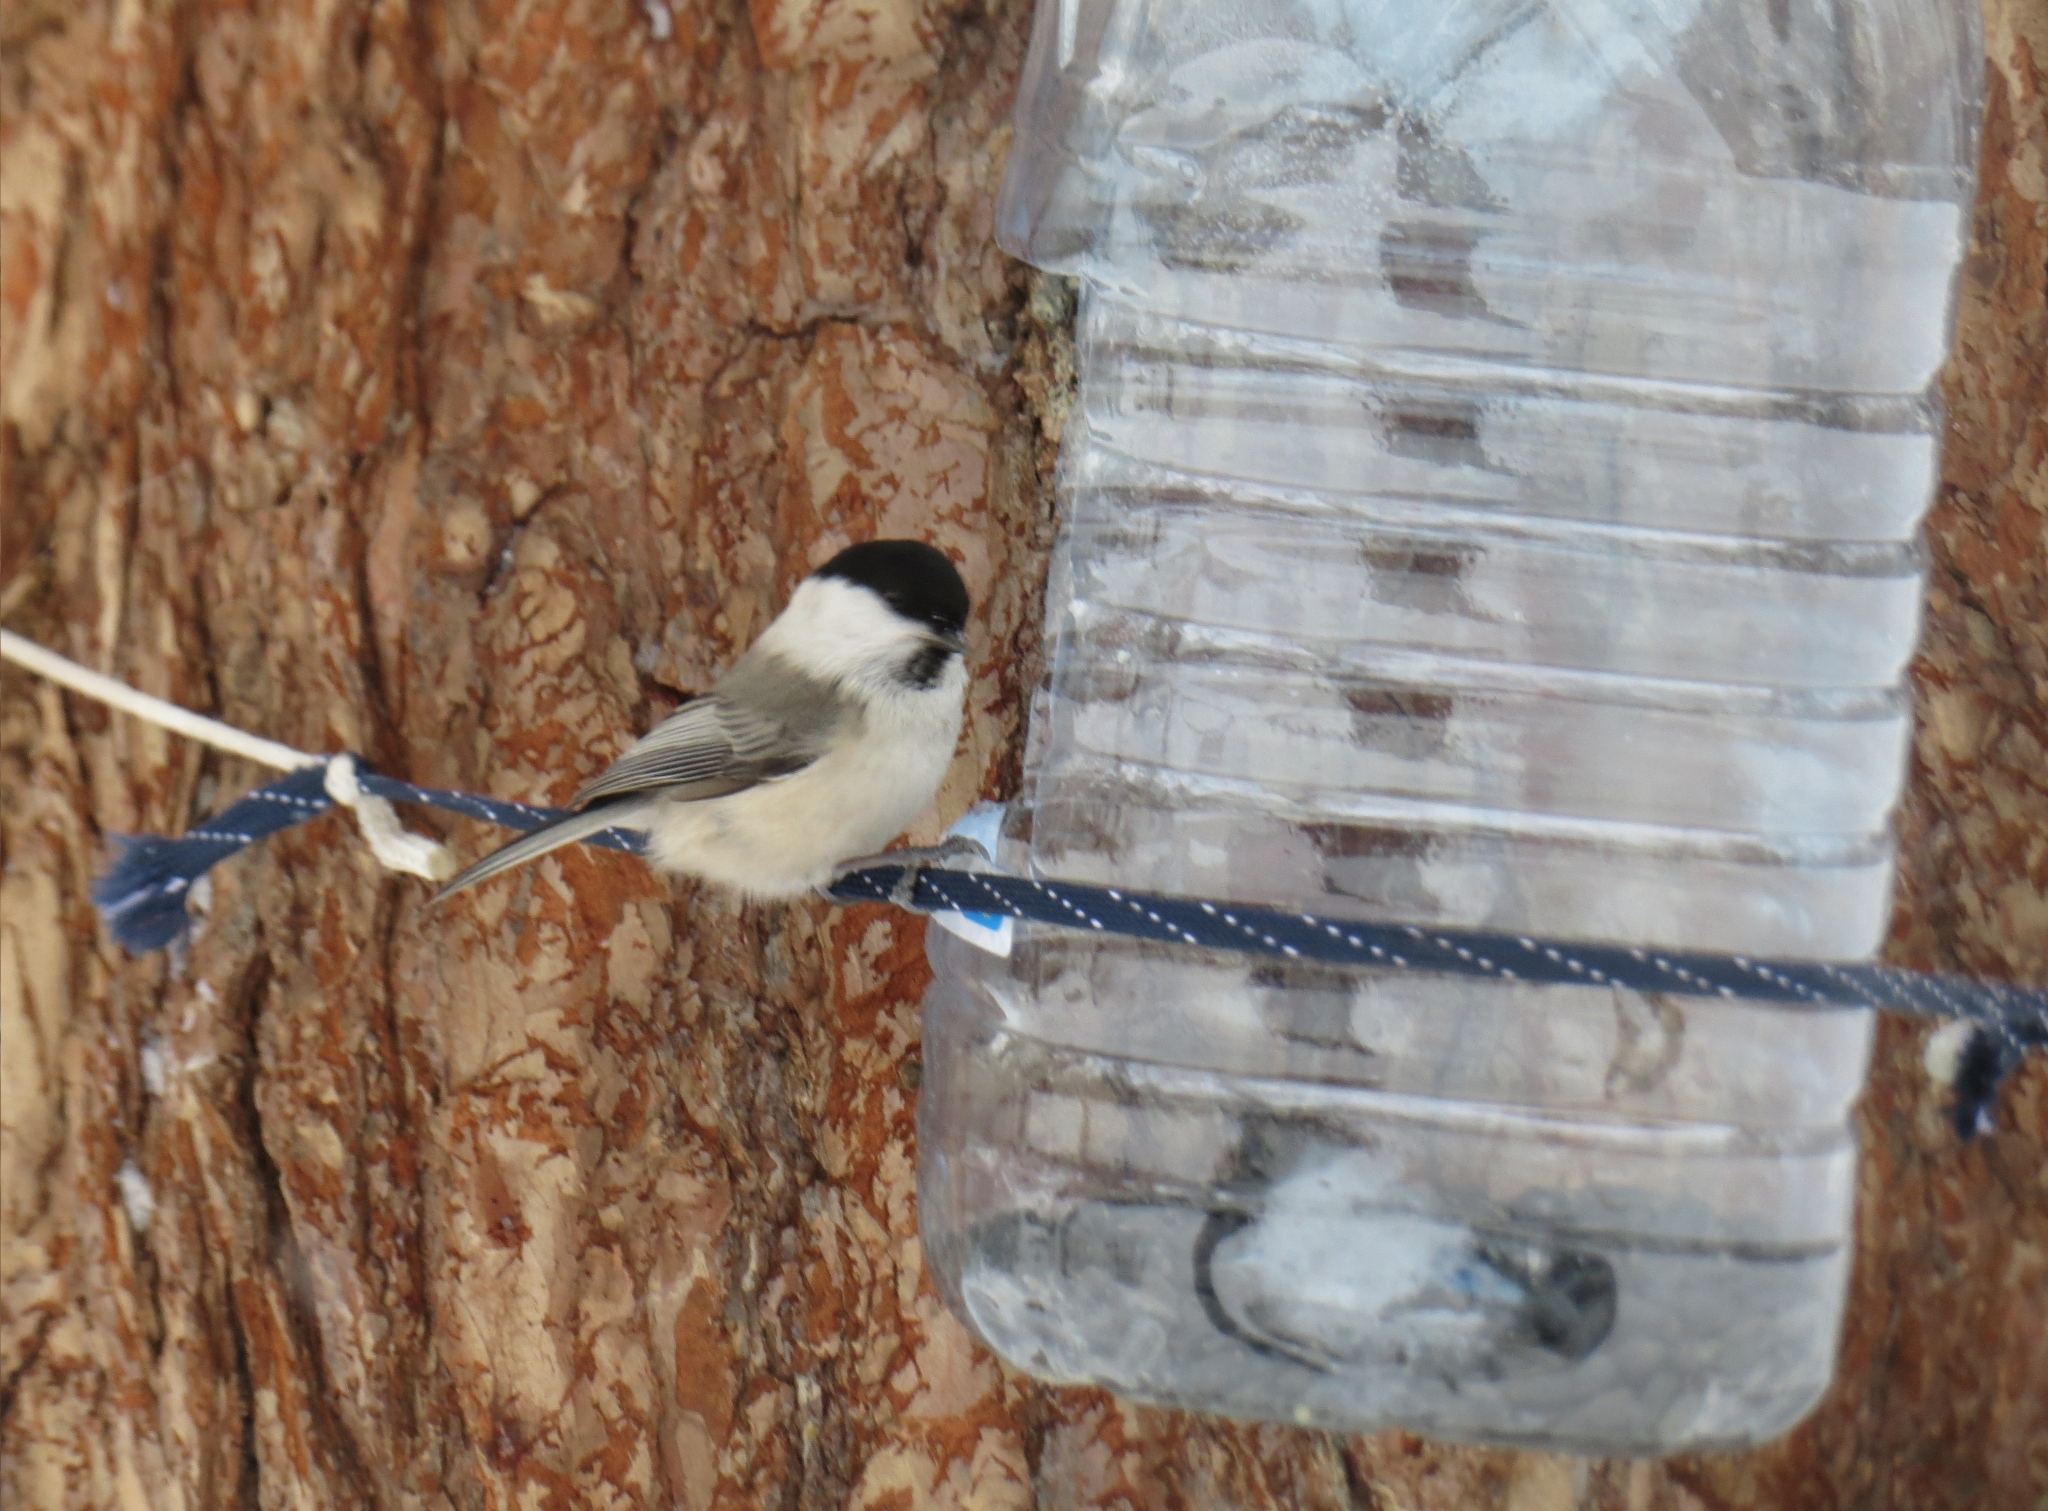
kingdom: Animalia
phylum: Chordata
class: Aves
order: Passeriformes
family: Paridae
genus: Poecile
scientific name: Poecile montanus
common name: Willow tit
